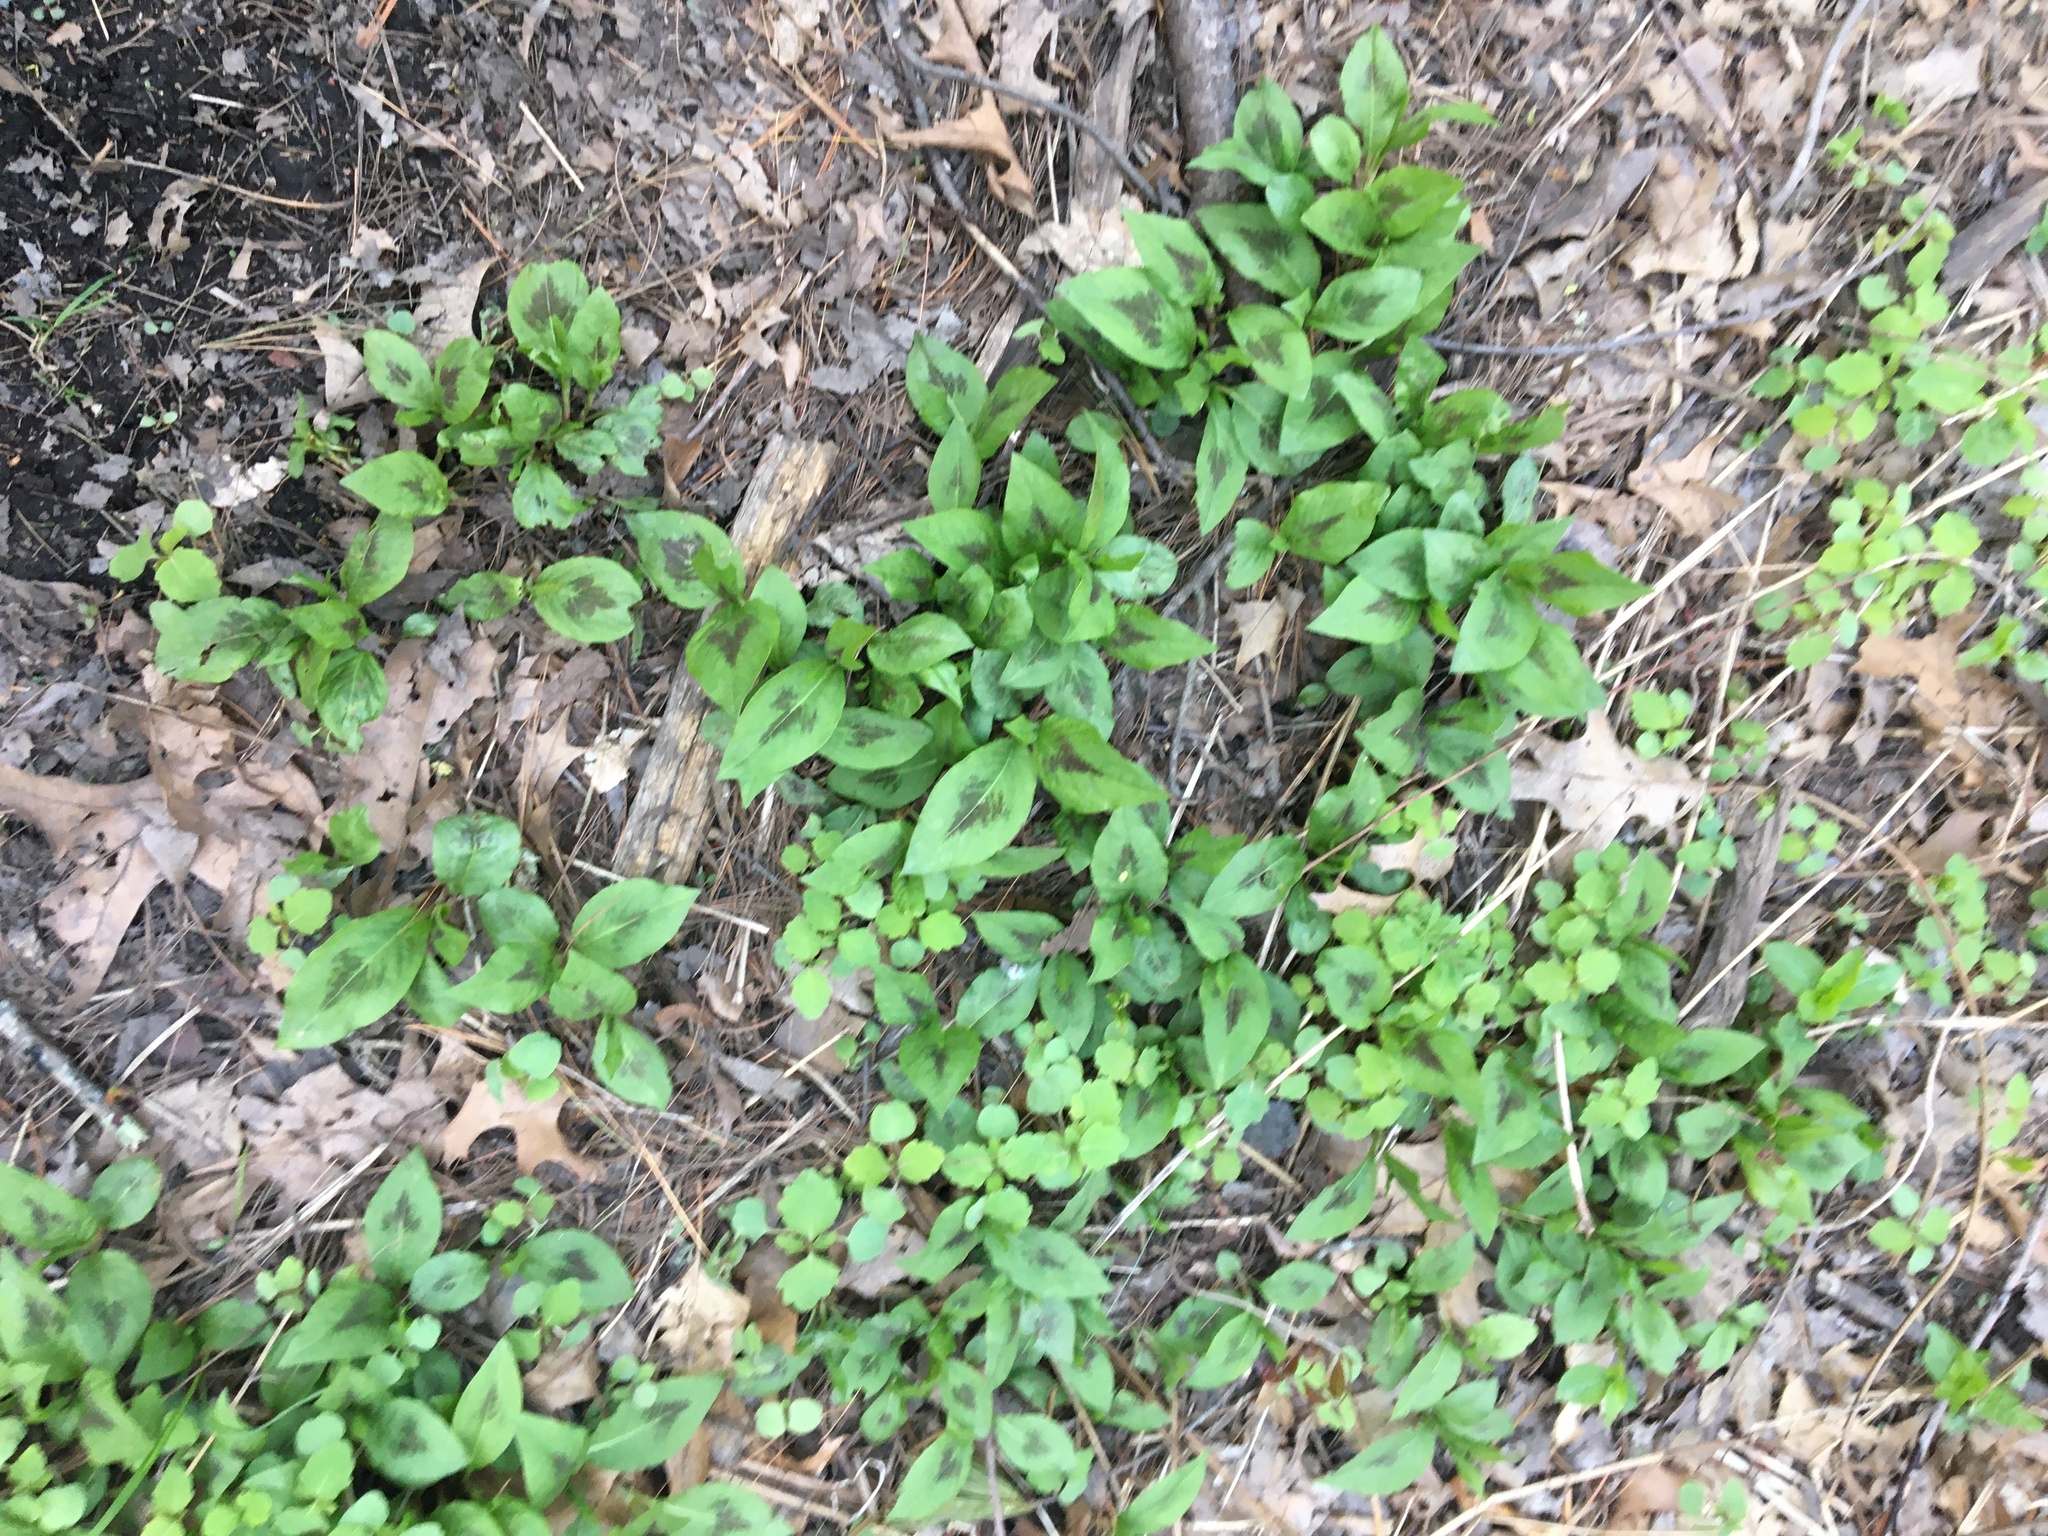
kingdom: Plantae
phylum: Tracheophyta
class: Magnoliopsida
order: Caryophyllales
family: Polygonaceae
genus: Persicaria
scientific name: Persicaria virginiana
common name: Jumpseed
